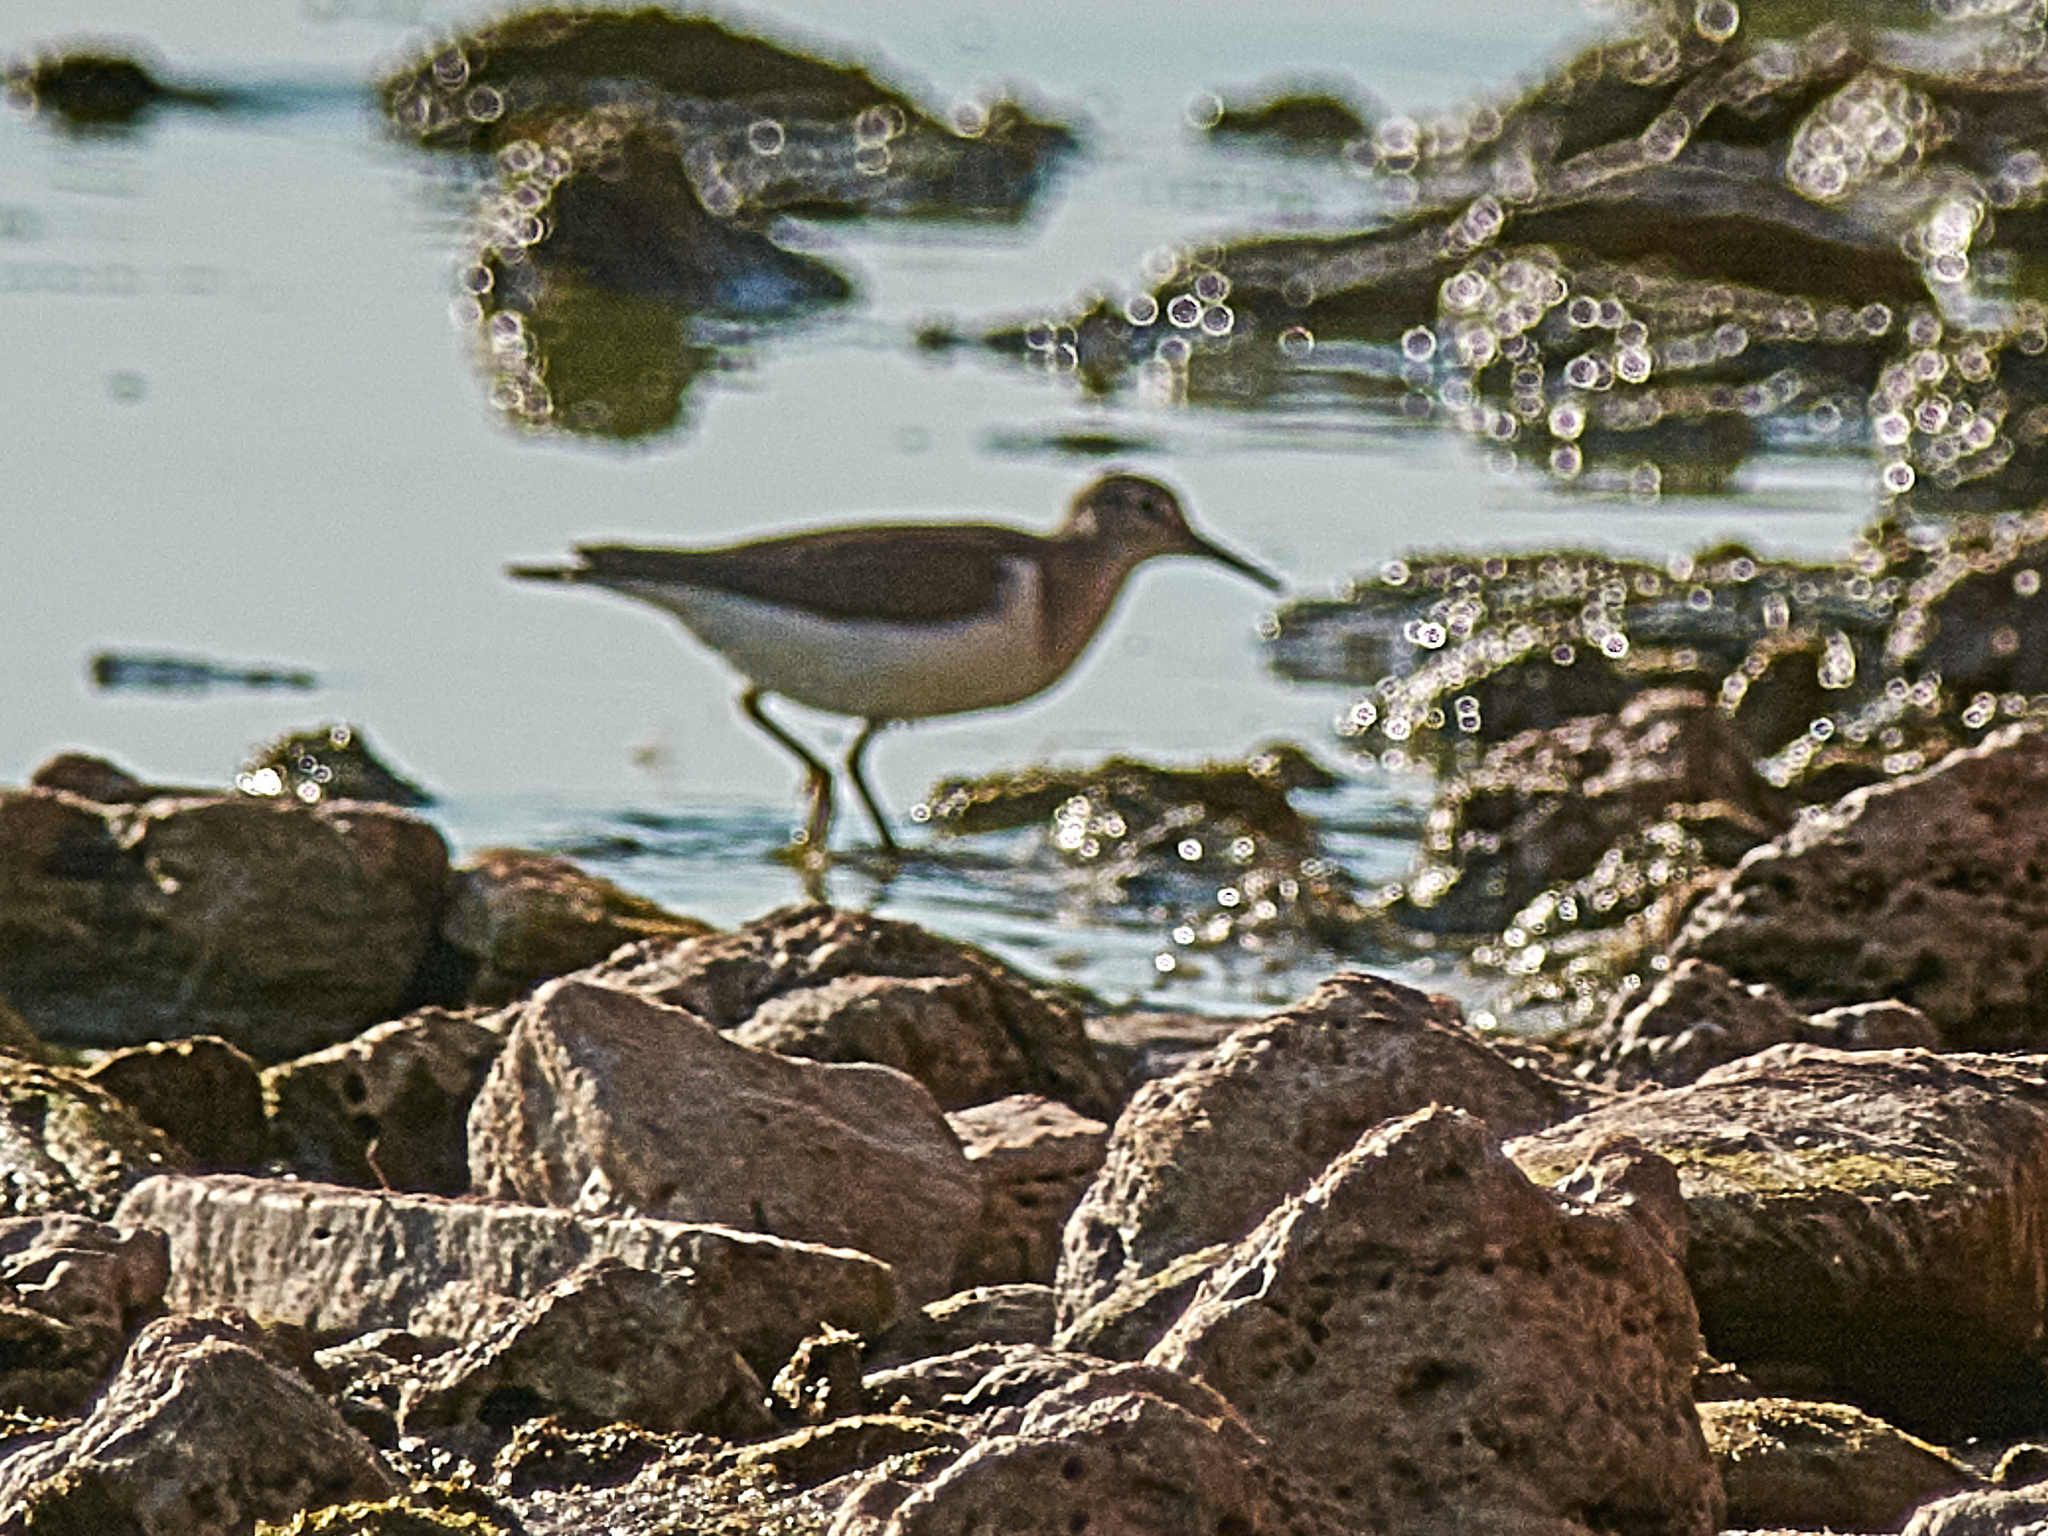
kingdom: Animalia
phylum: Chordata
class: Aves
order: Charadriiformes
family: Scolopacidae
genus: Actitis
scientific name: Actitis hypoleucos
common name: Common sandpiper
